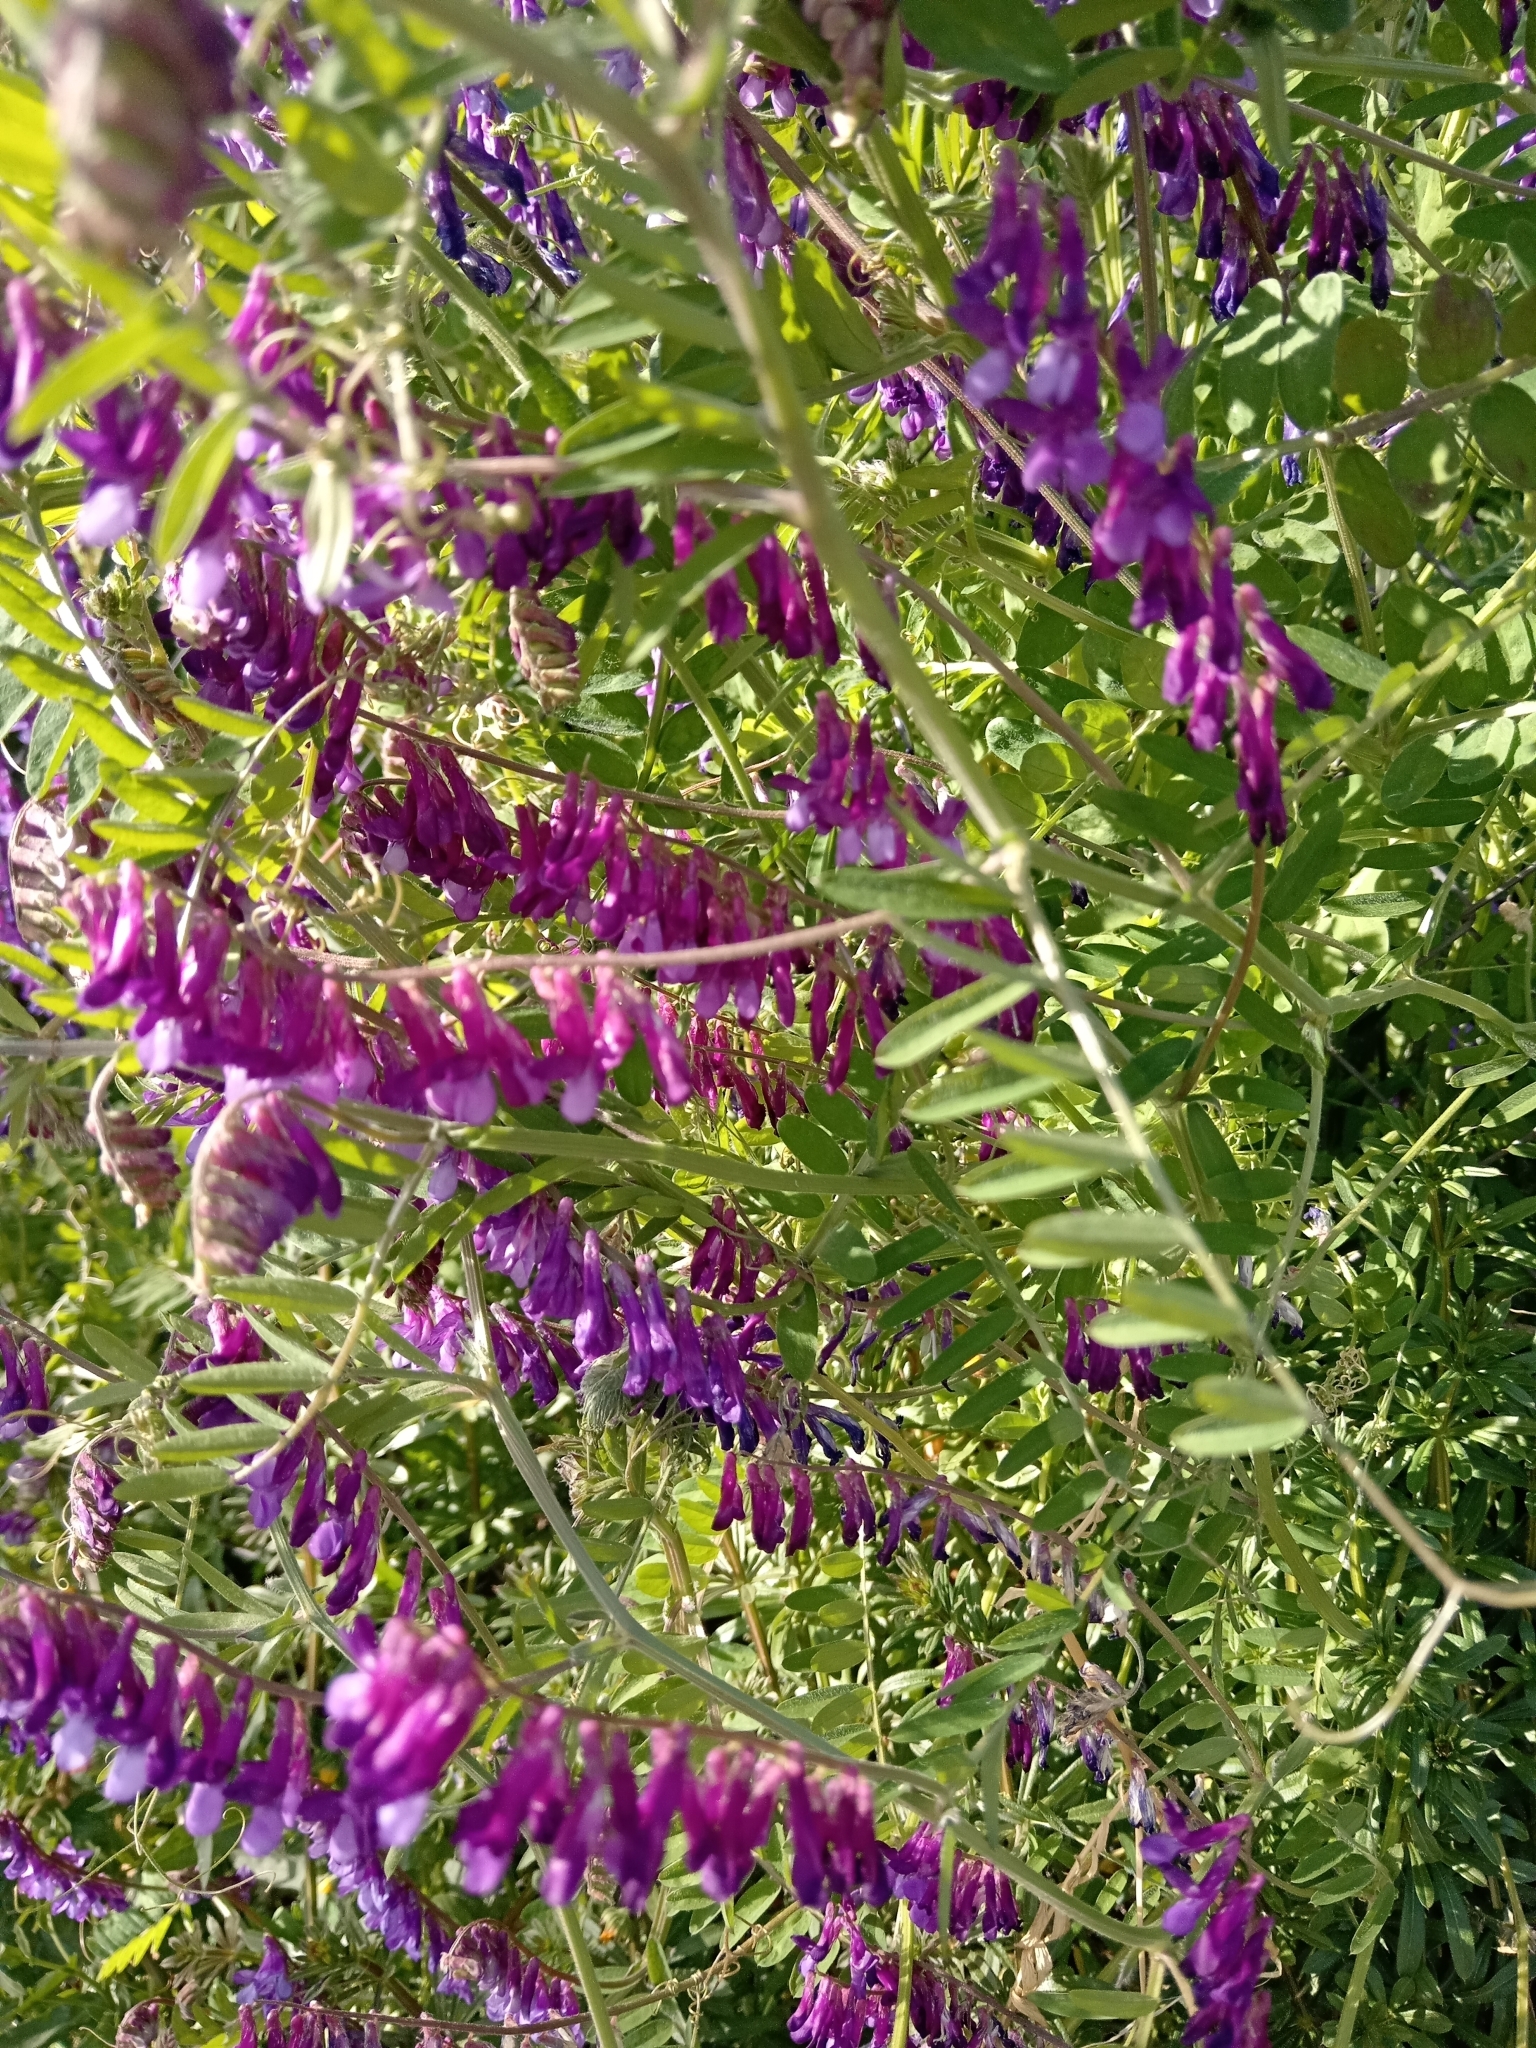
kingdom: Plantae
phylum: Tracheophyta
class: Magnoliopsida
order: Fabales
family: Fabaceae
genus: Vicia
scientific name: Vicia villosa
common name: Fodder vetch
